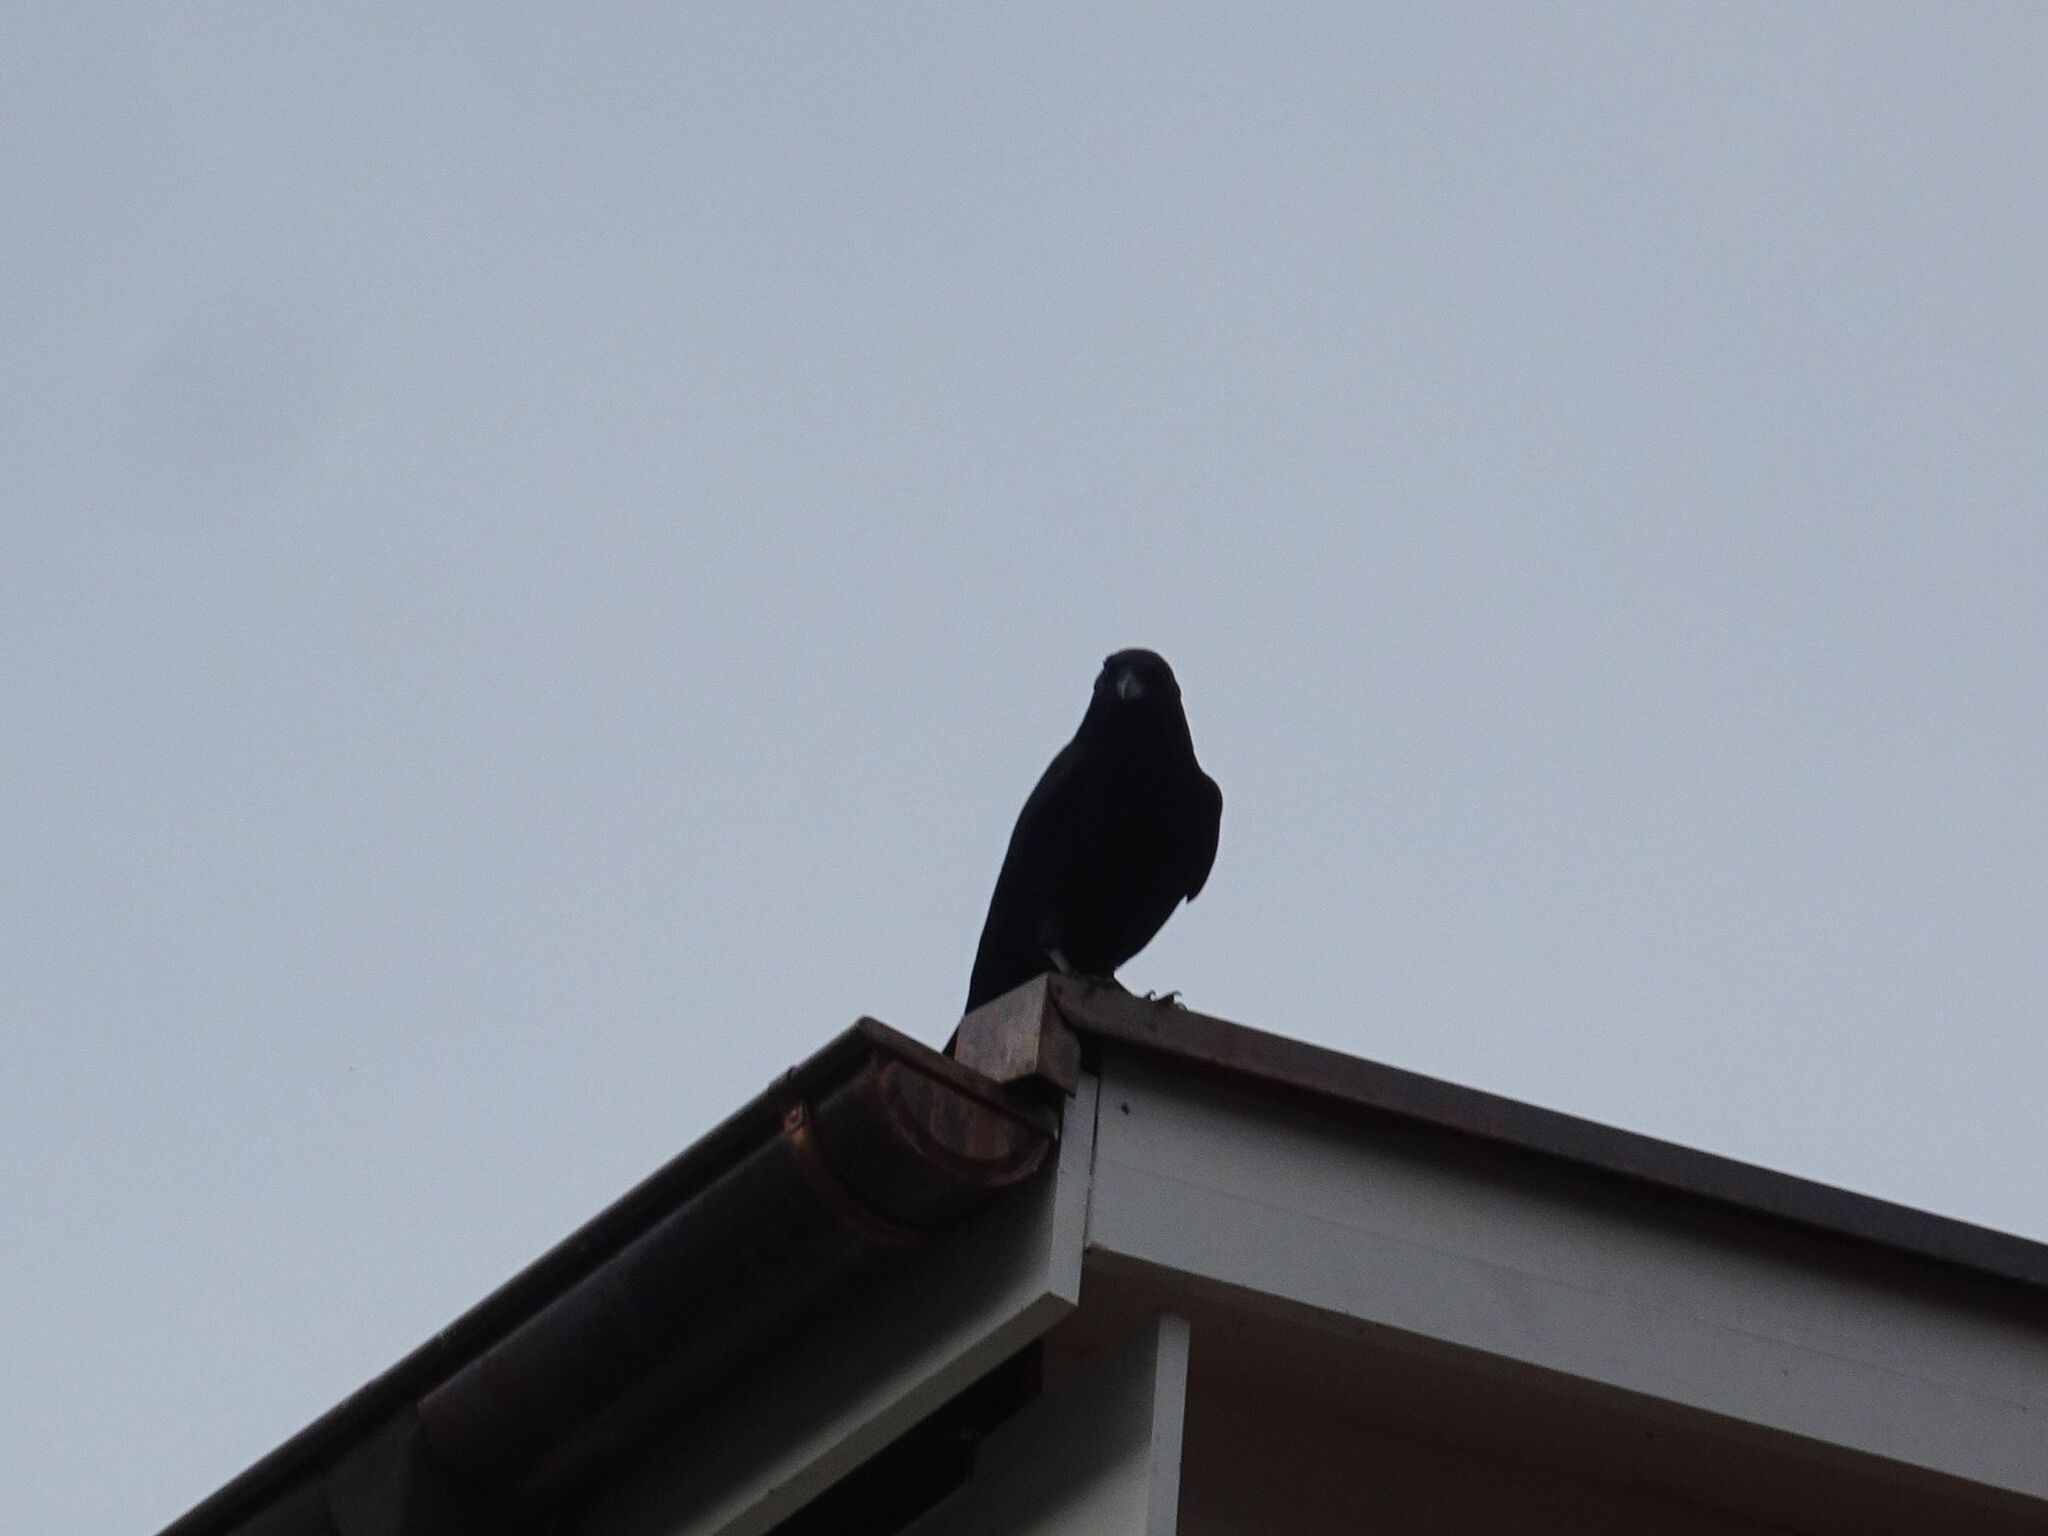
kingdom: Animalia
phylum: Chordata
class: Aves
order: Passeriformes
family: Corvidae
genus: Corvus
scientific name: Corvus corone
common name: Carrion crow
